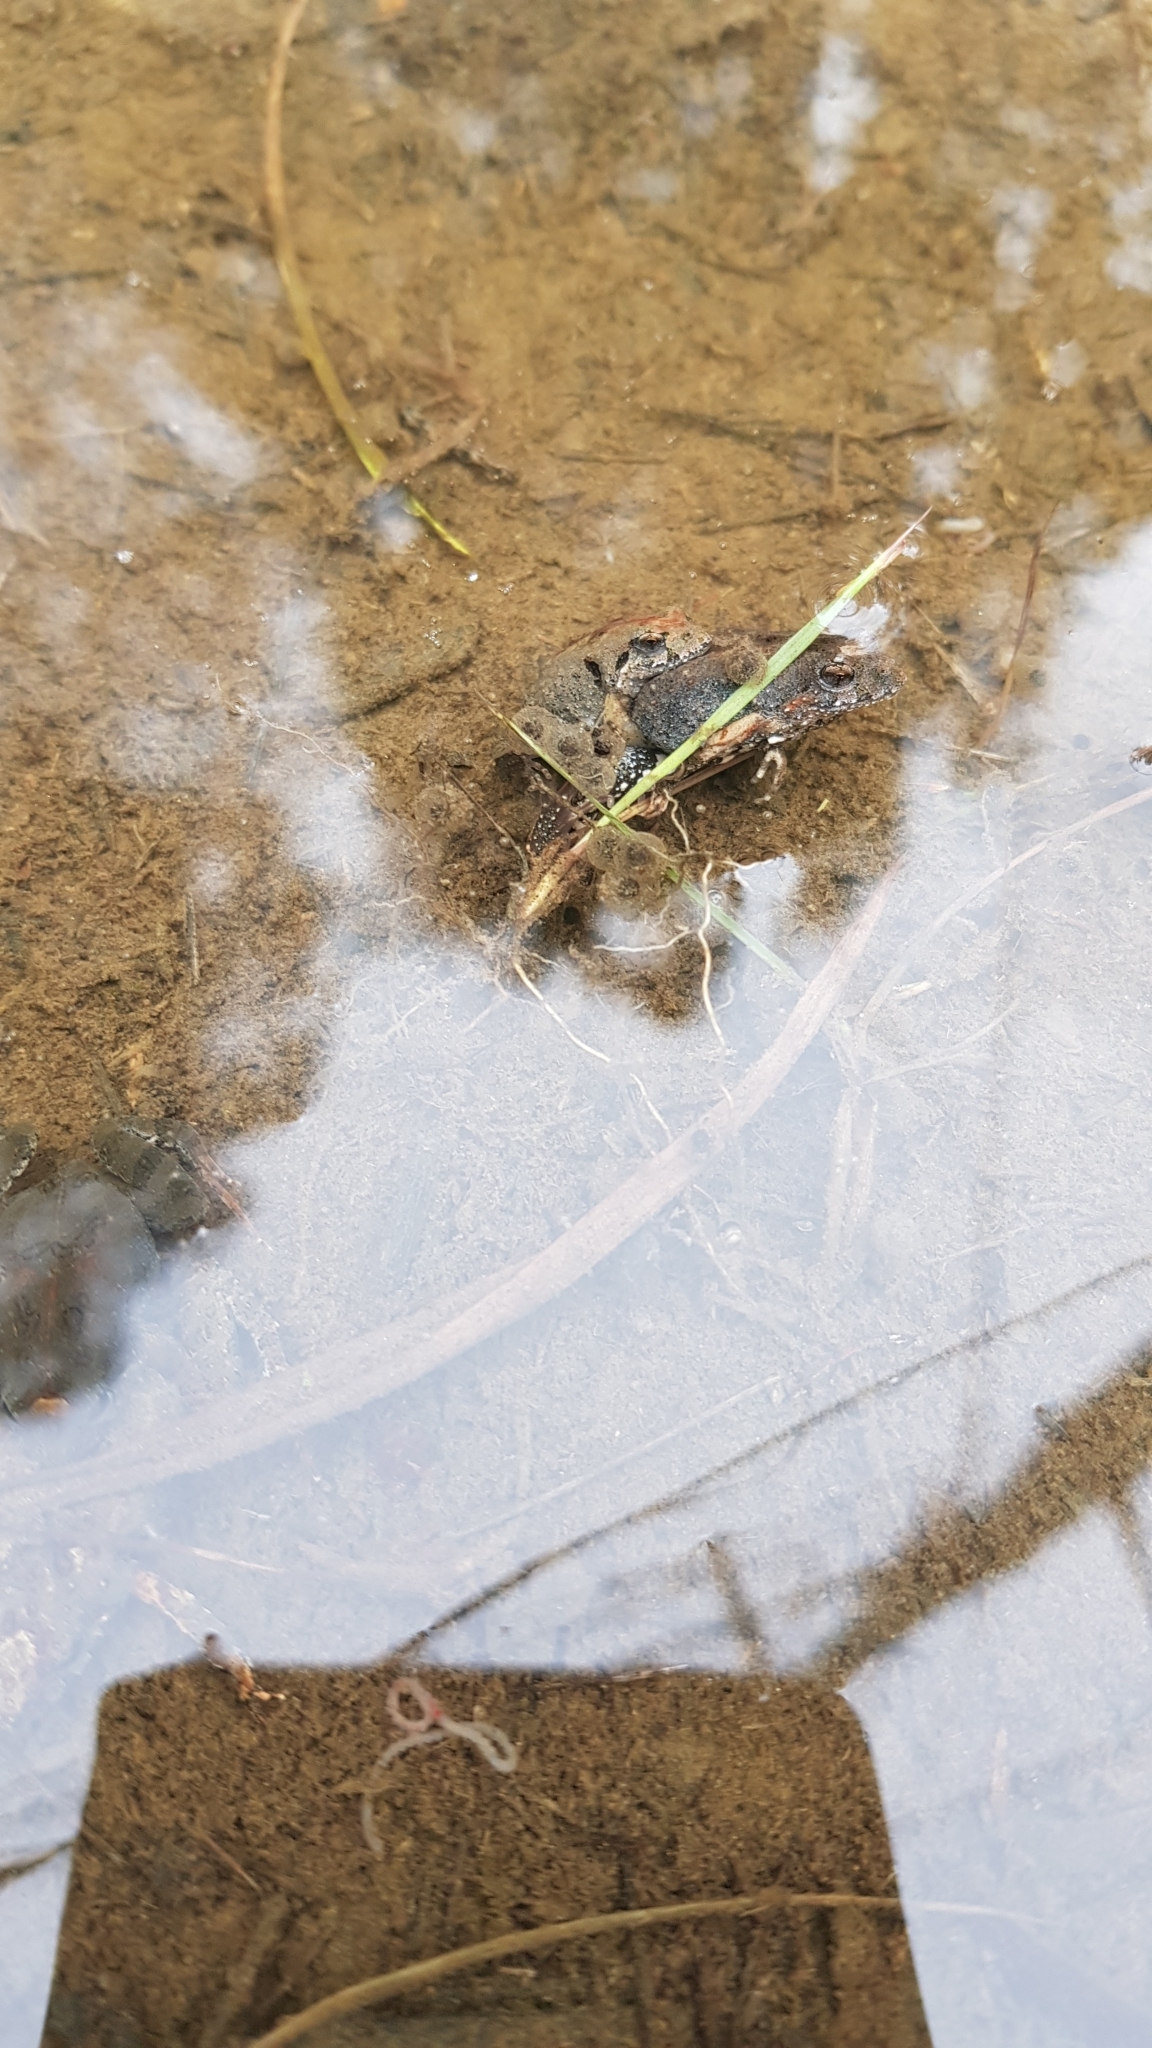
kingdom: Animalia
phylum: Chordata
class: Amphibia
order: Anura
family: Myobatrachidae
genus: Crinia
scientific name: Crinia signifera
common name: Brown froglet
